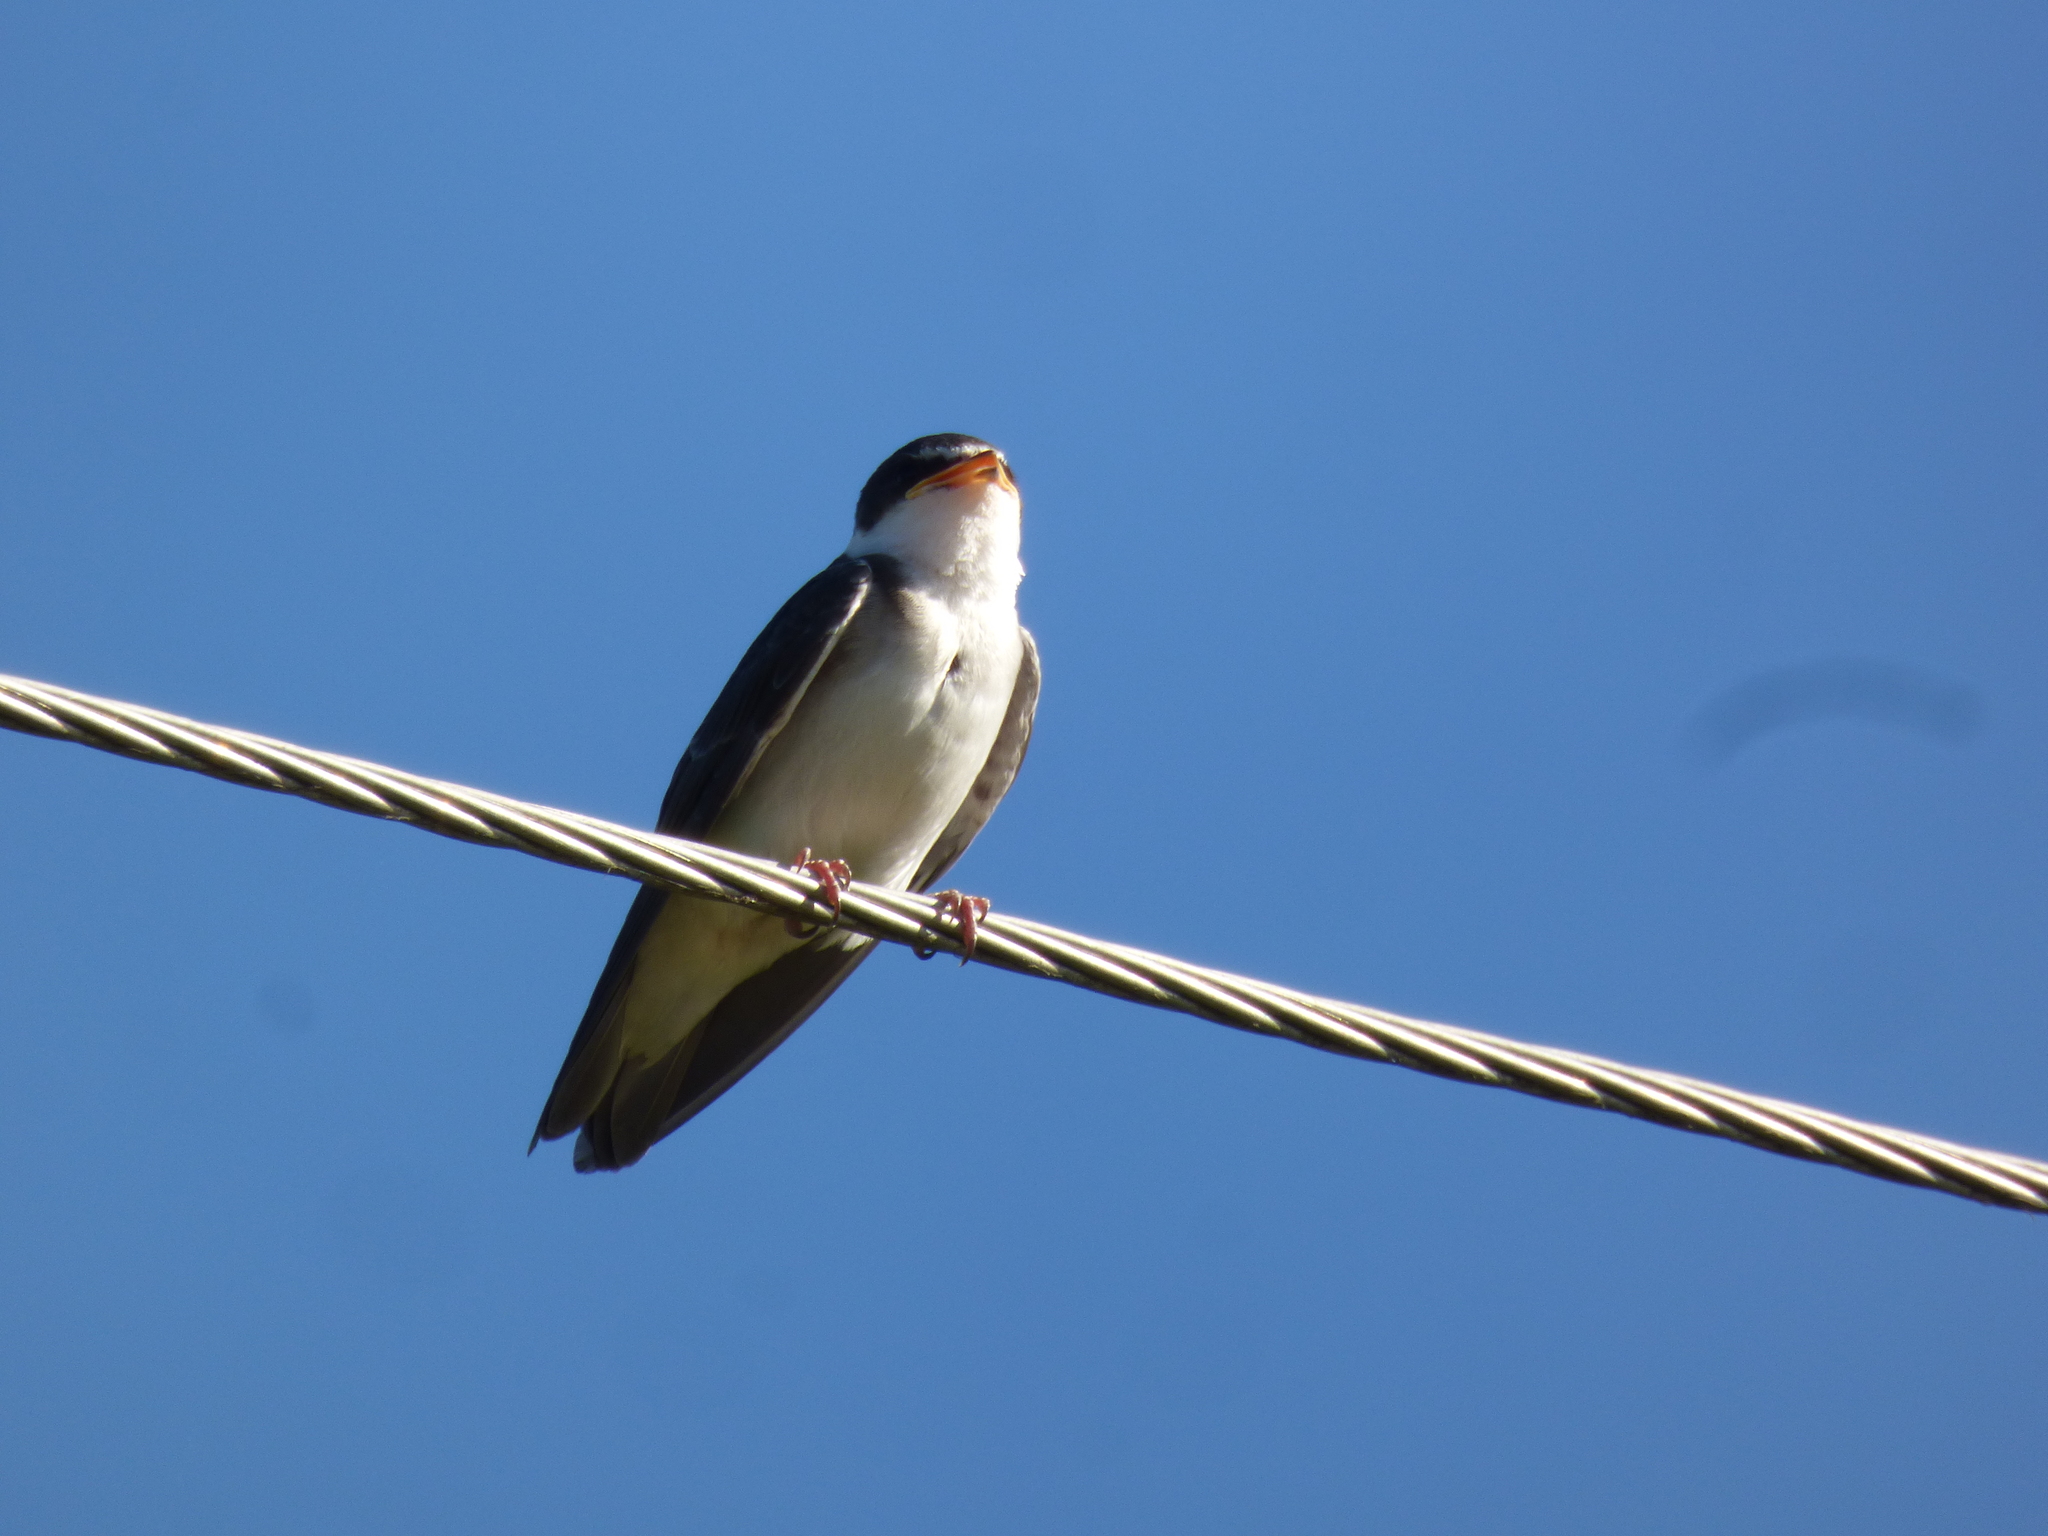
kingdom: Animalia
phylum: Chordata
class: Aves
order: Passeriformes
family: Hirundinidae
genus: Tachycineta
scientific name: Tachycineta leucorrhoa
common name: White-rumped swallow
